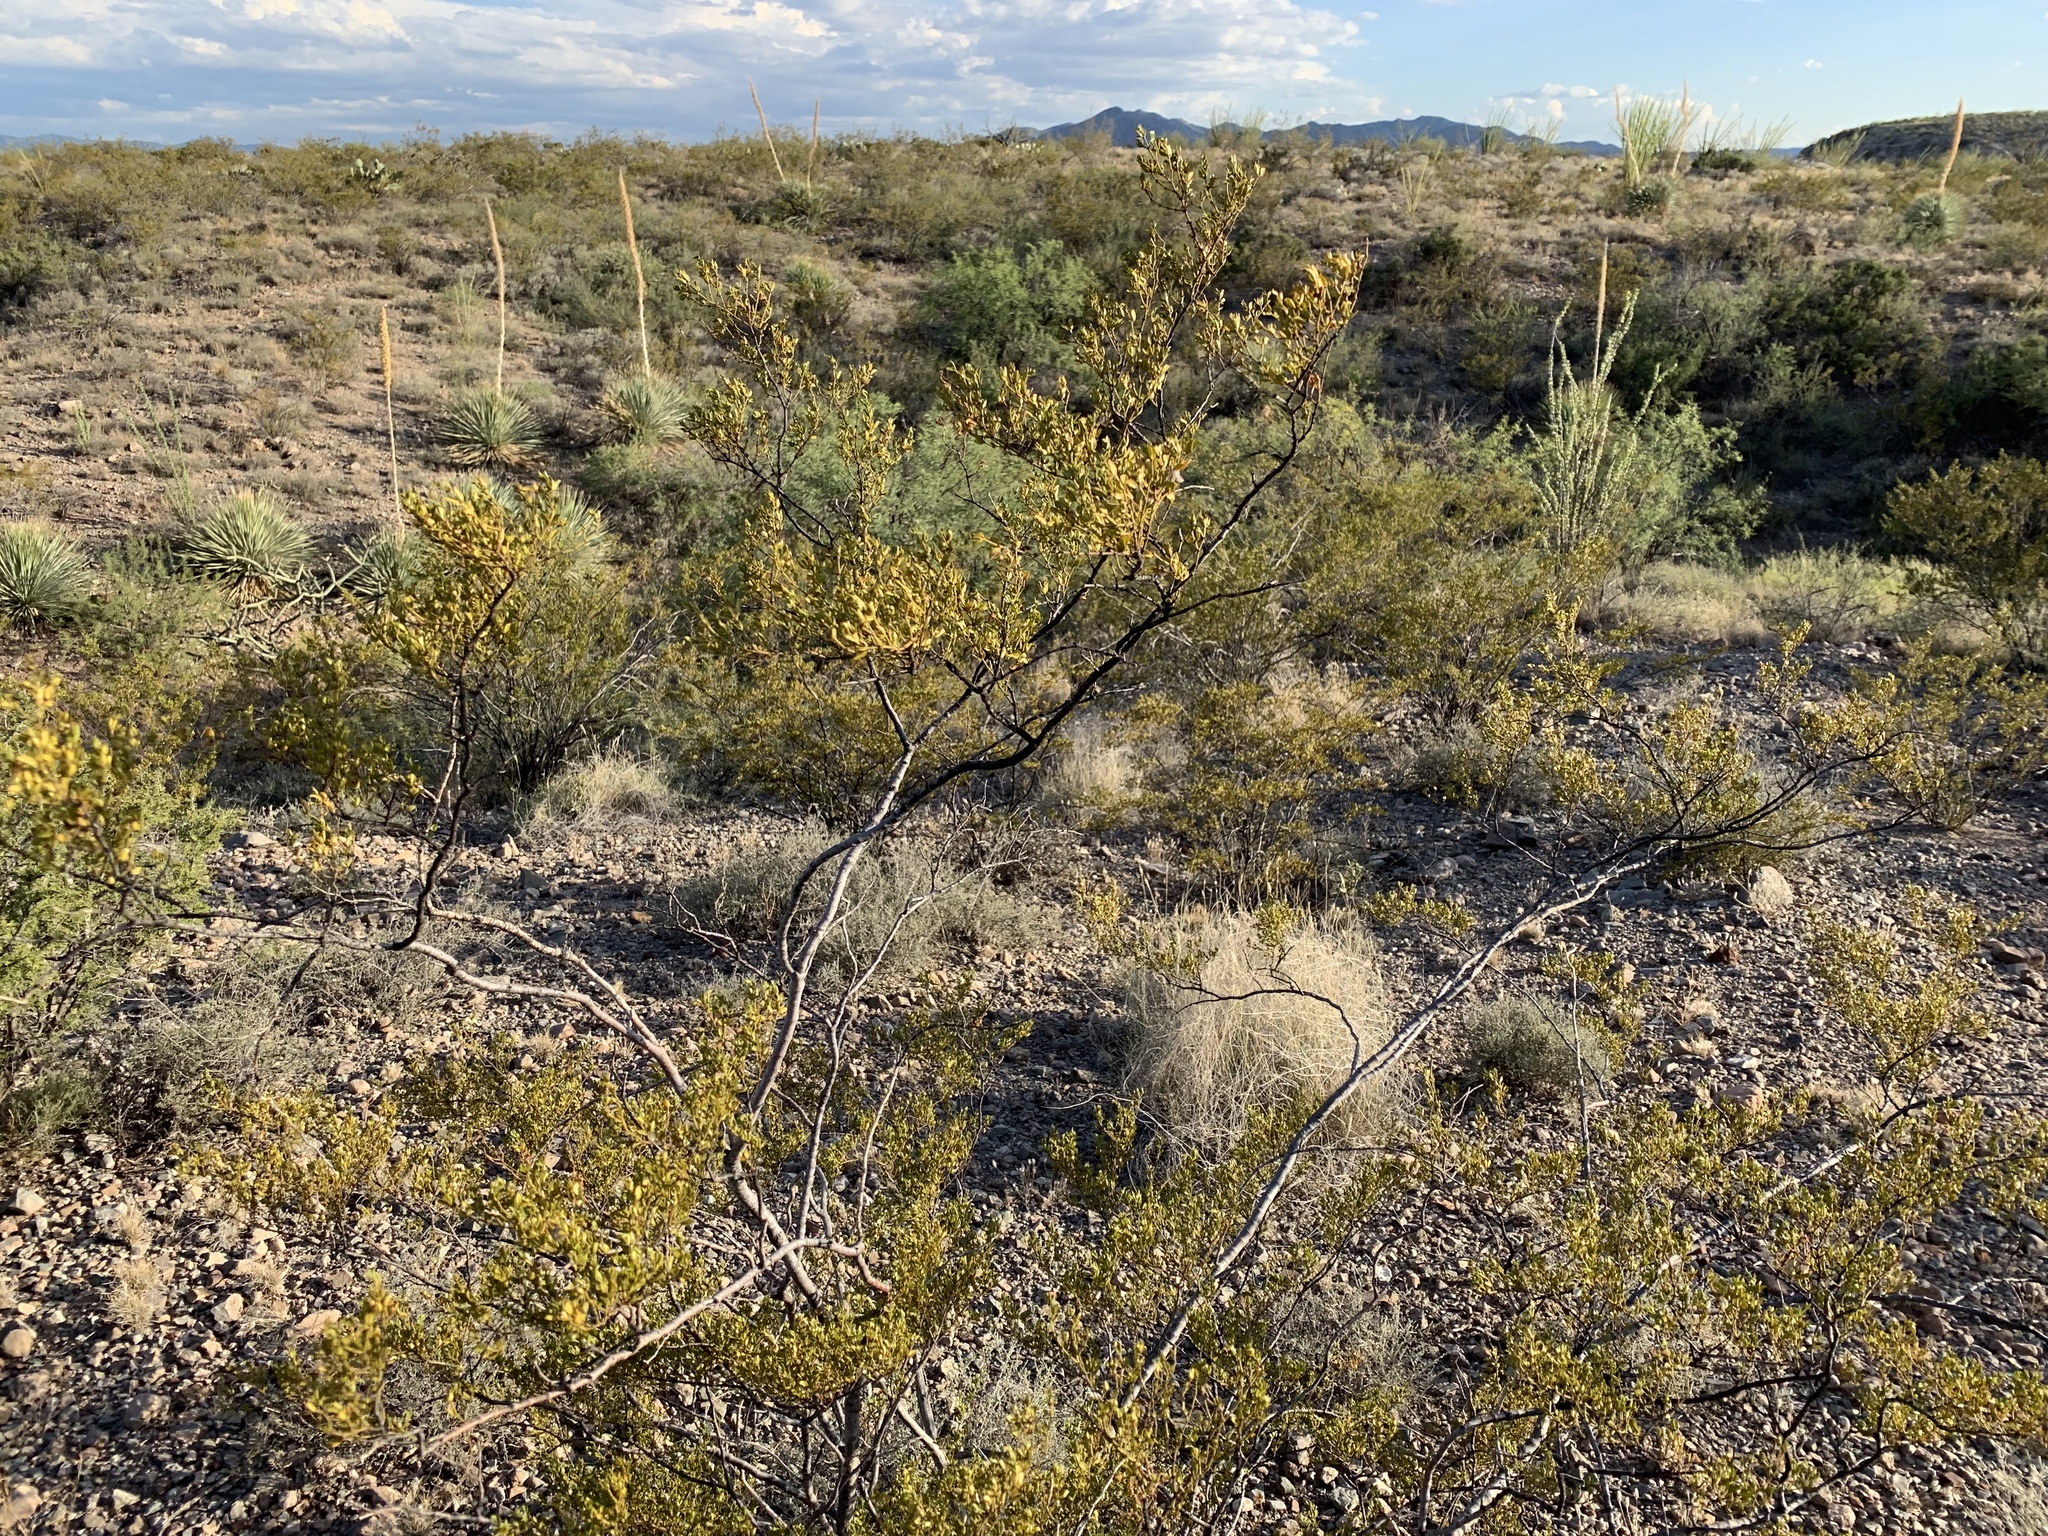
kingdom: Plantae
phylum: Tracheophyta
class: Magnoliopsida
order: Zygophyllales
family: Zygophyllaceae
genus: Larrea
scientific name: Larrea tridentata
